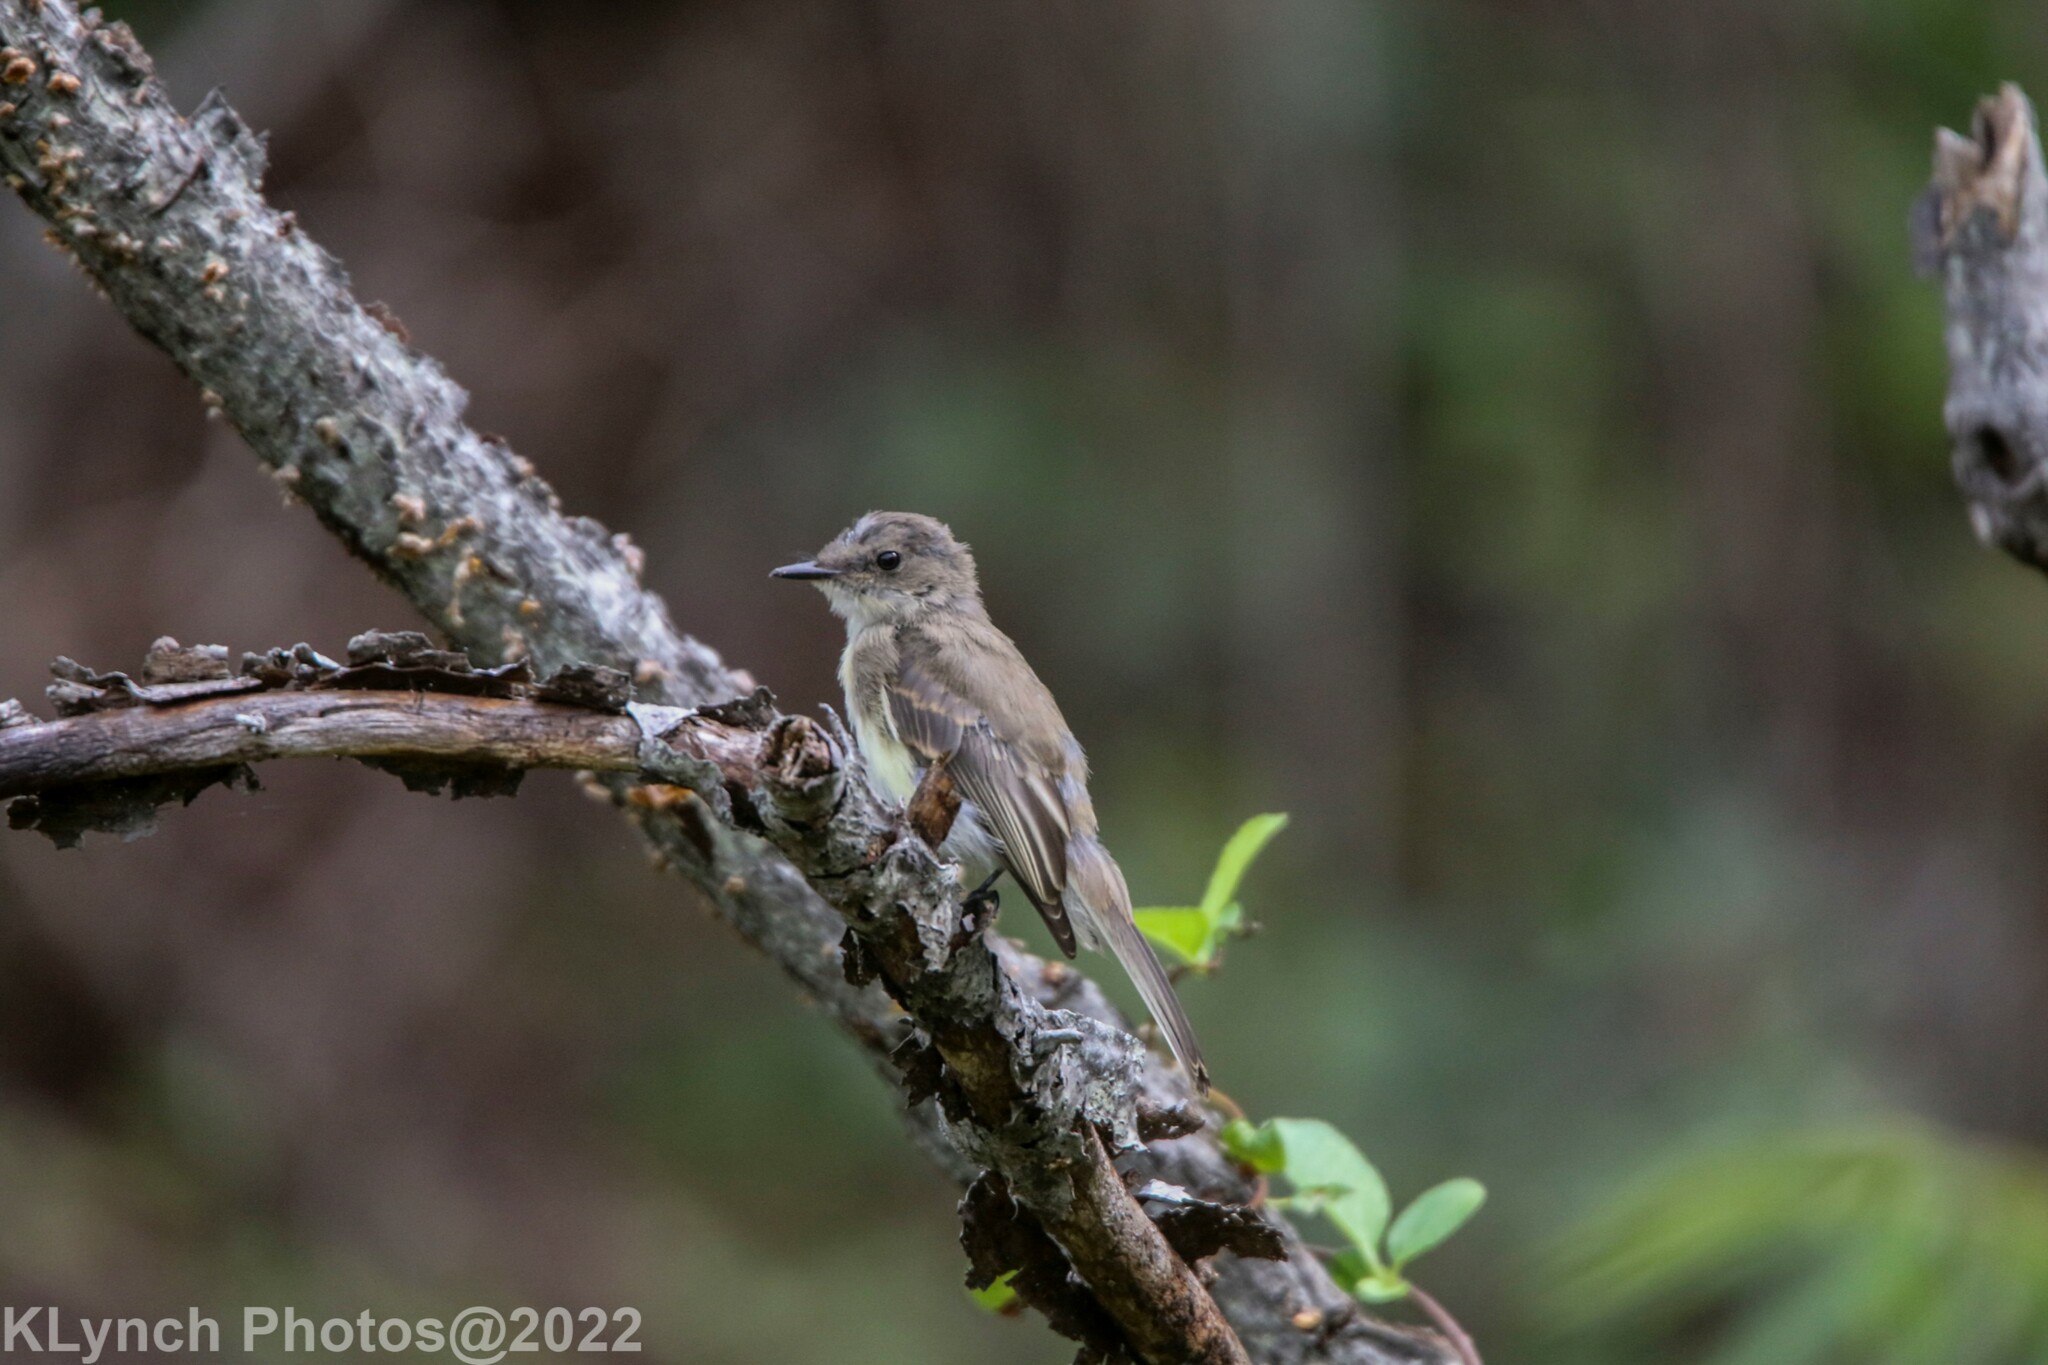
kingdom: Animalia
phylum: Chordata
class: Aves
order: Passeriformes
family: Tyrannidae
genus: Sayornis
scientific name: Sayornis phoebe
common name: Eastern phoebe
